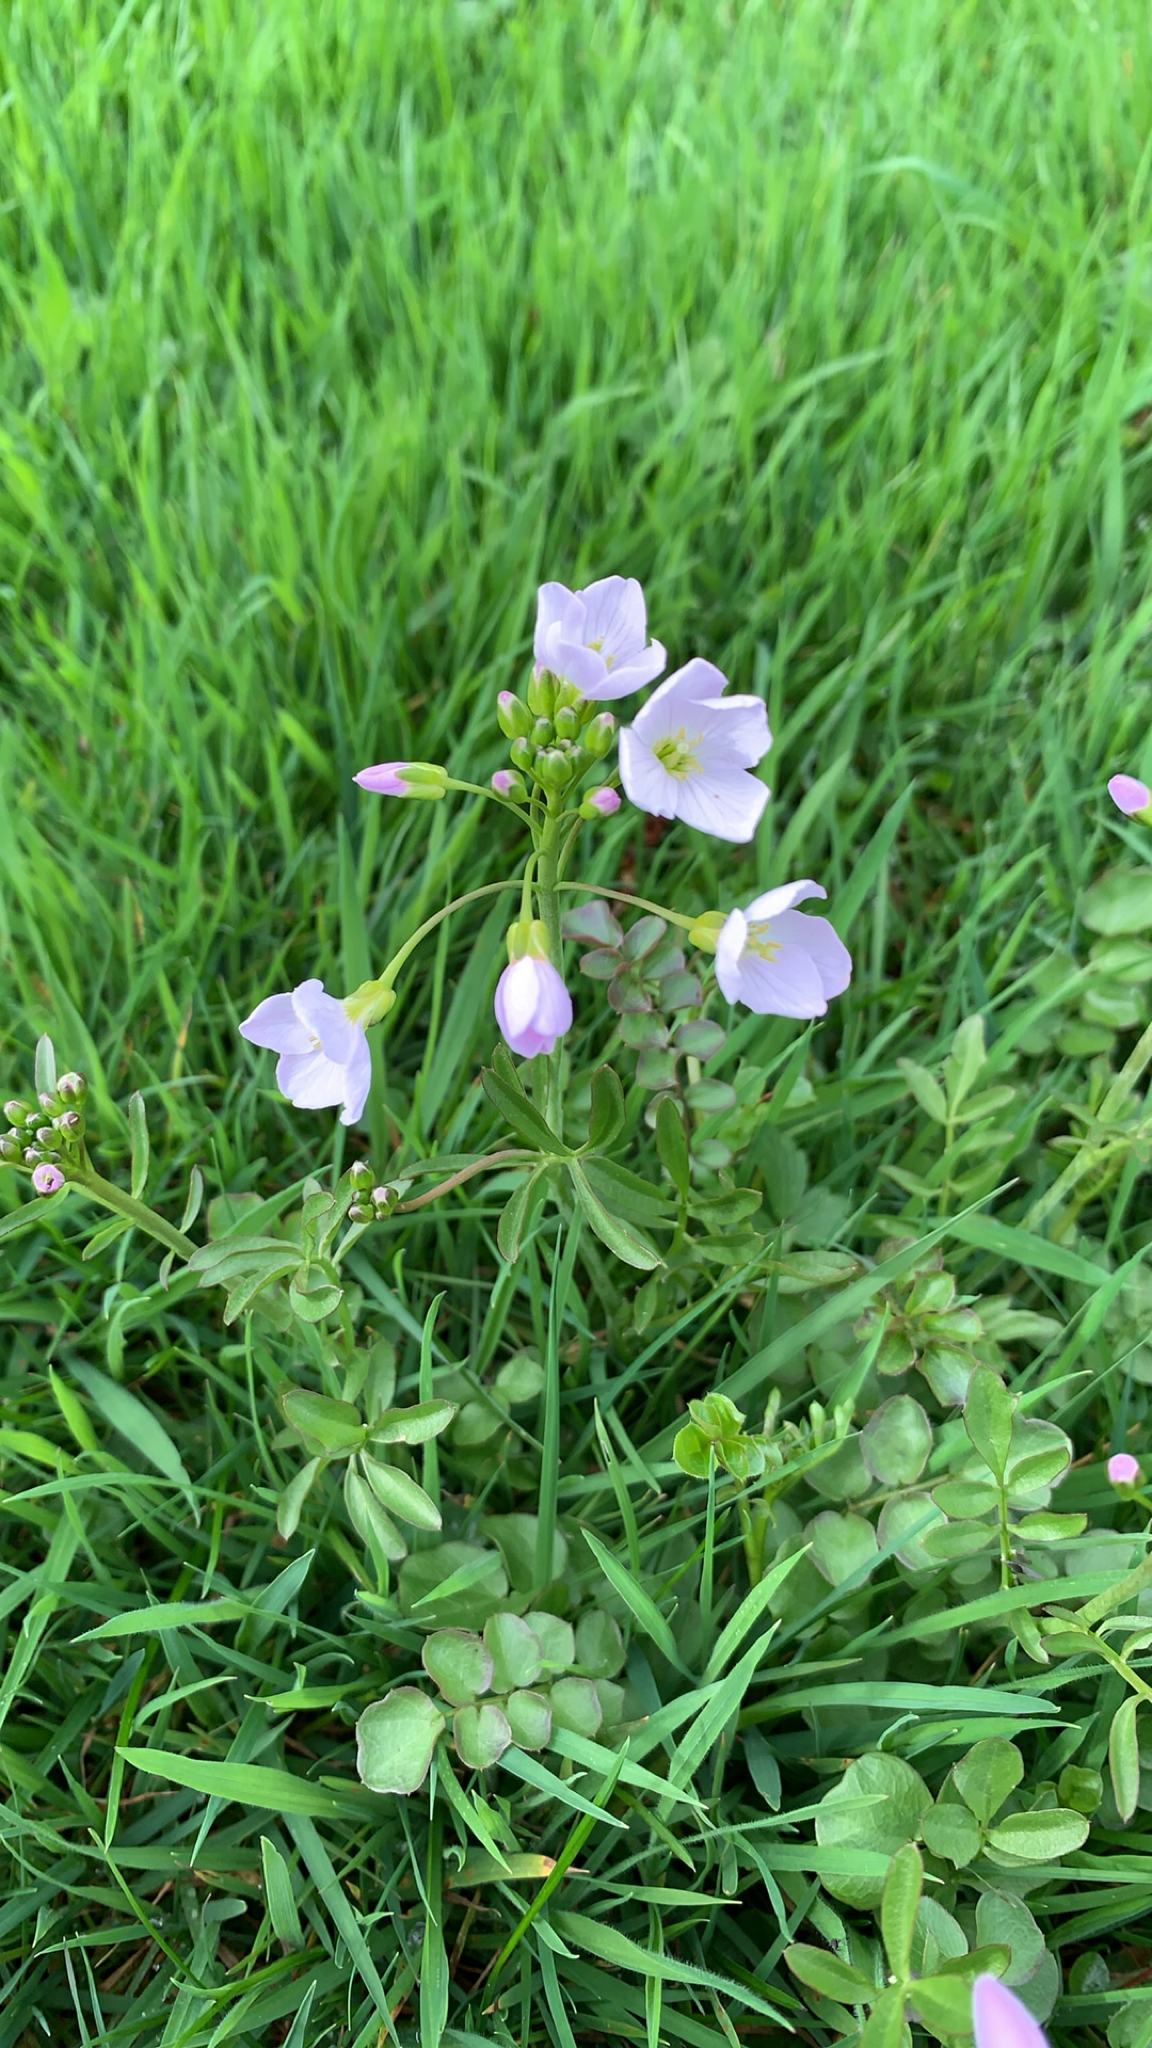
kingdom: Plantae
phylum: Tracheophyta
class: Magnoliopsida
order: Brassicales
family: Brassicaceae
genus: Cardamine
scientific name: Cardamine pratensis
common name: Cuckoo flower
